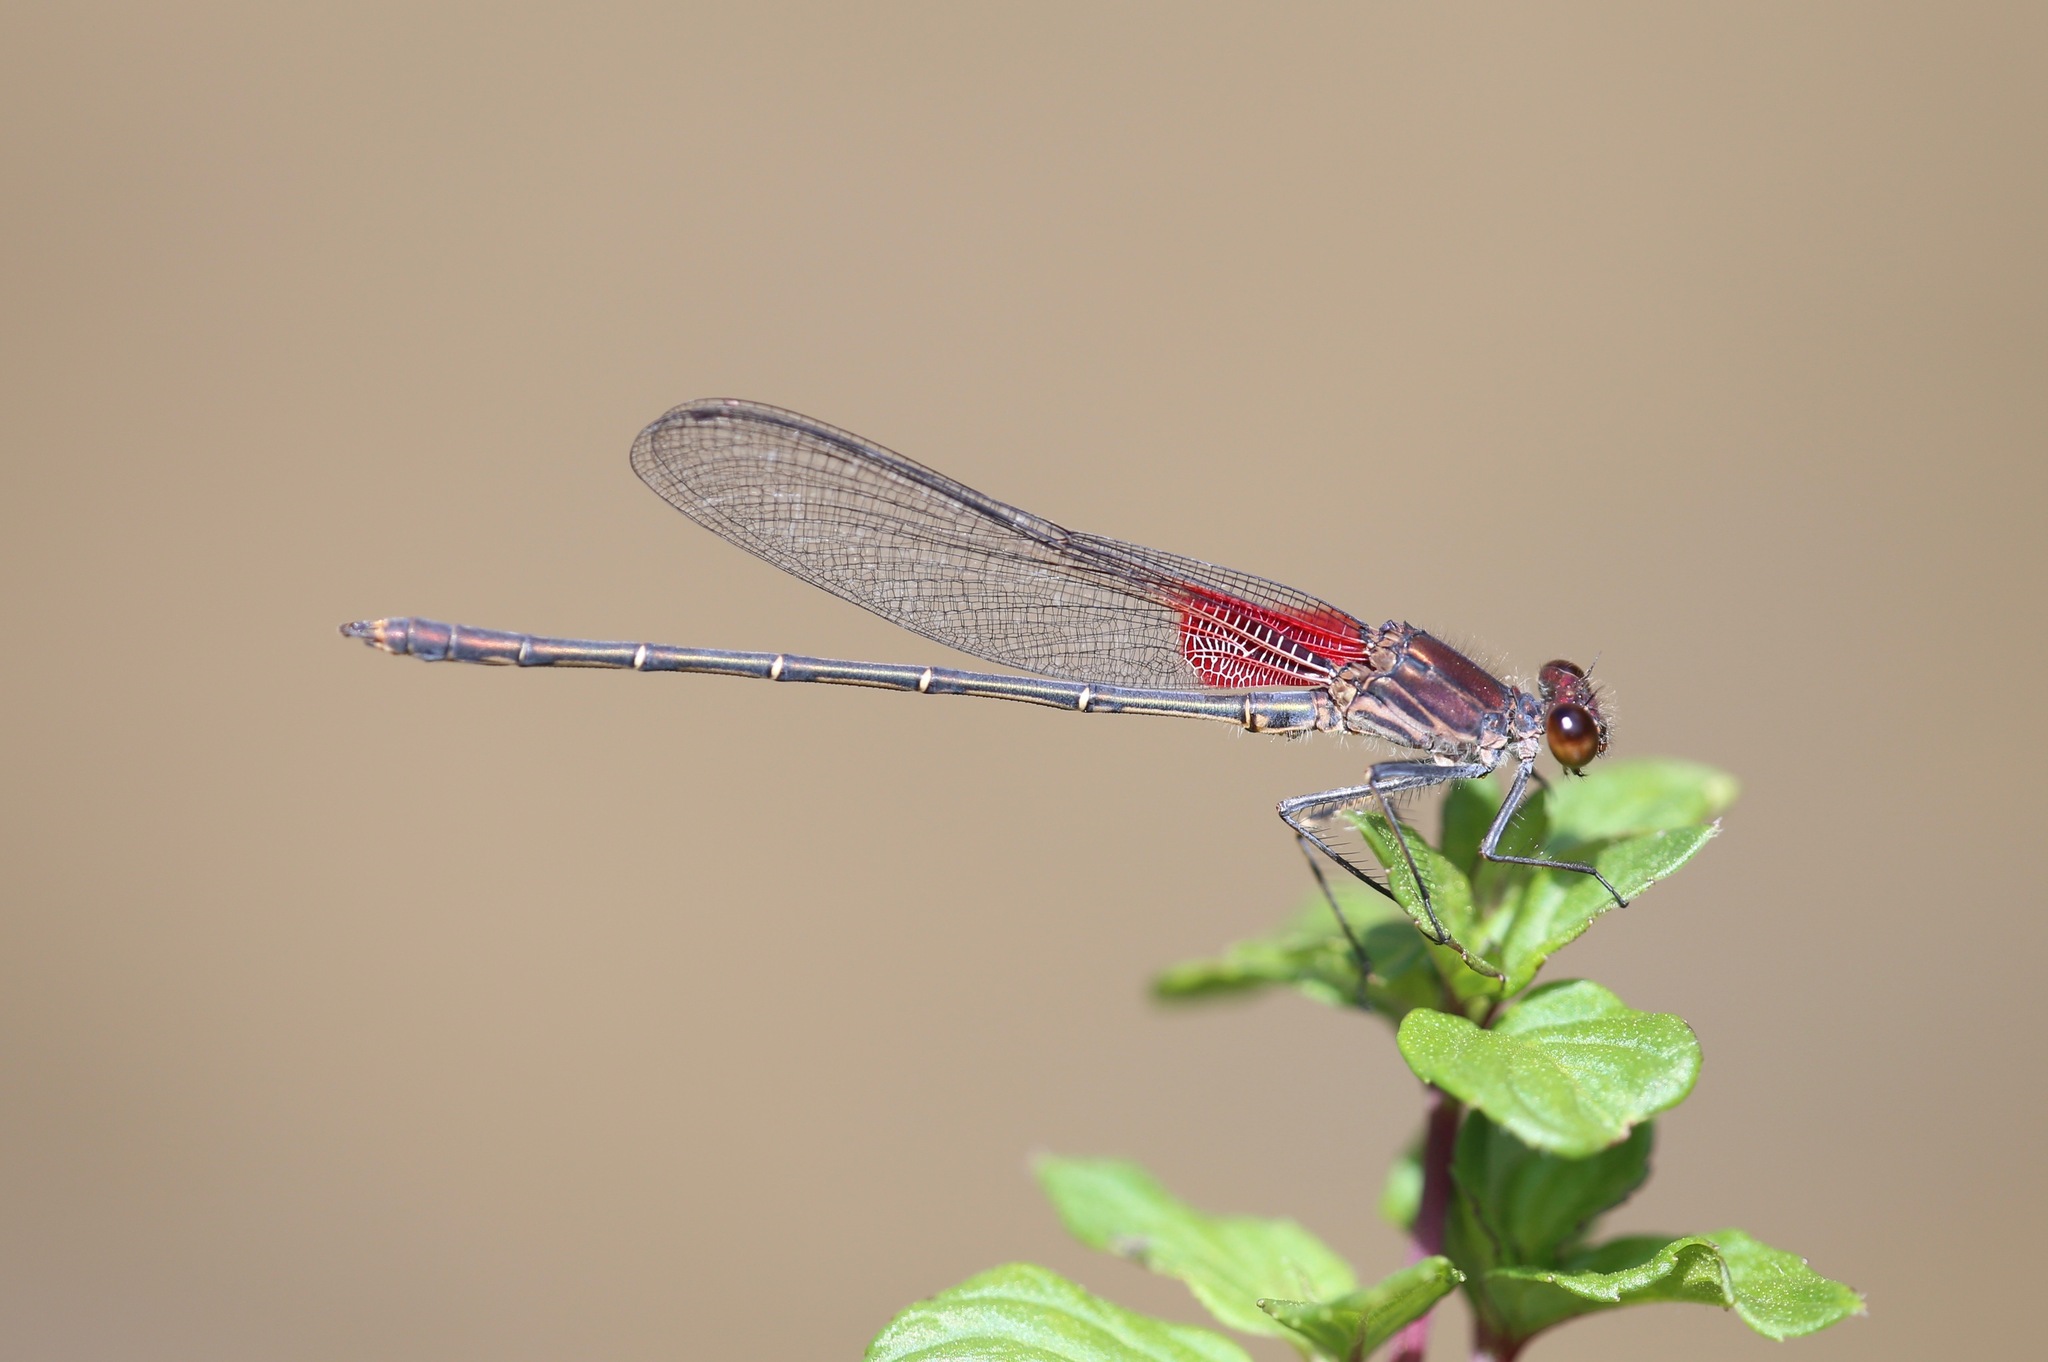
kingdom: Animalia
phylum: Arthropoda
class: Insecta
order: Odonata
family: Calopterygidae
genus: Hetaerina
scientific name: Hetaerina americana
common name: American rubyspot
